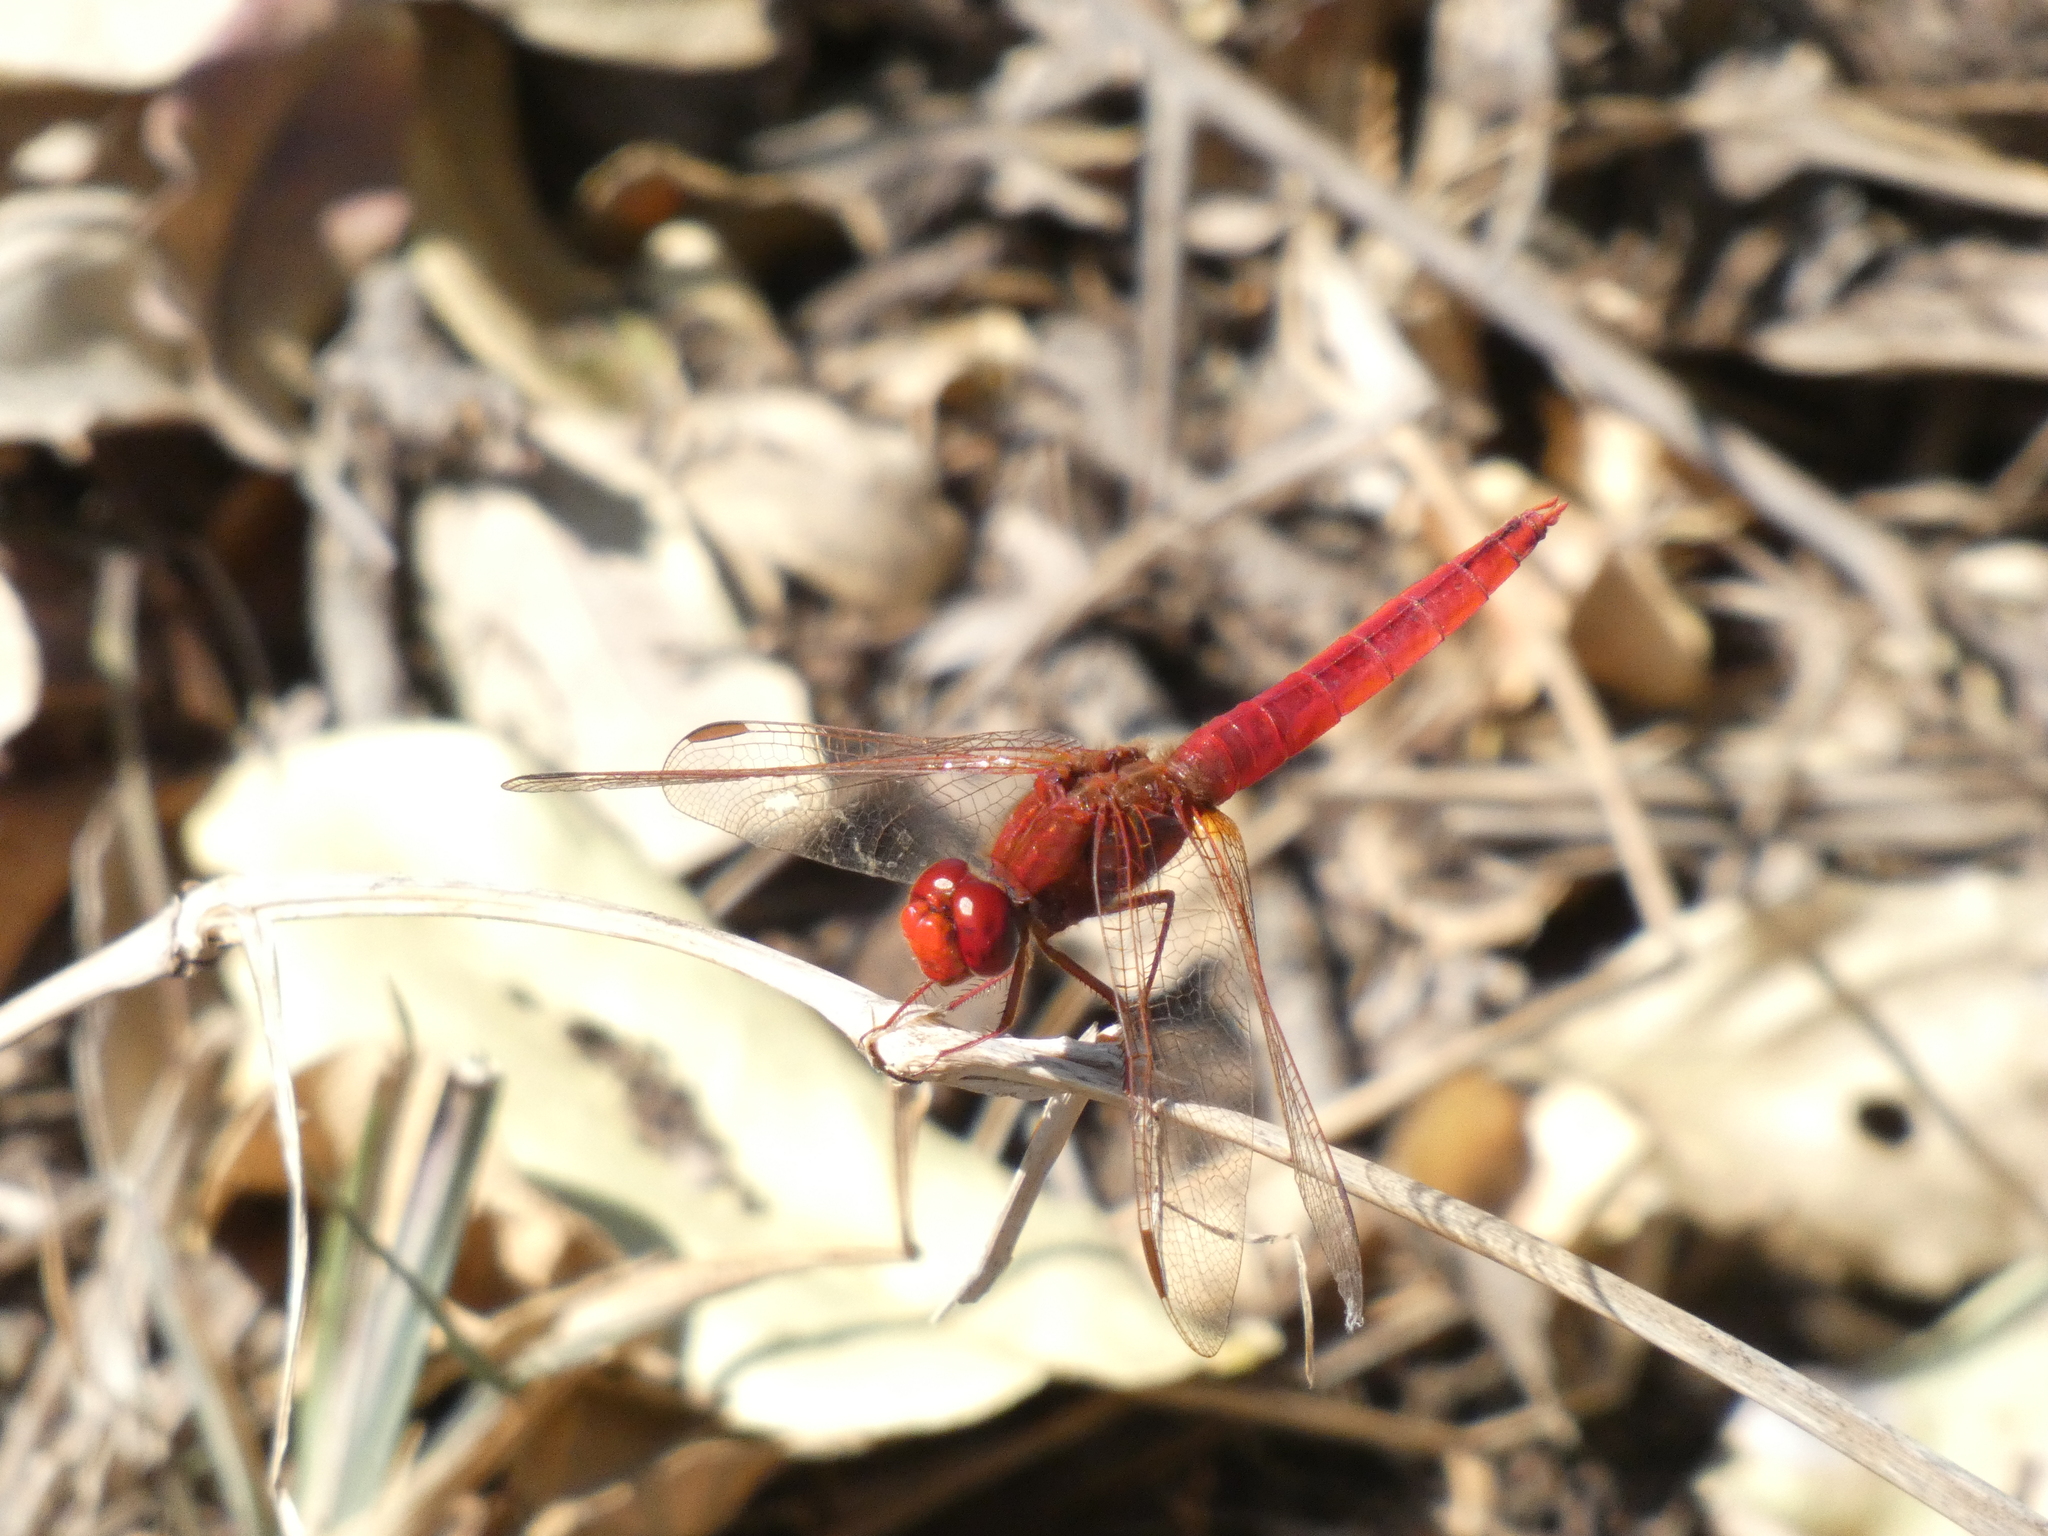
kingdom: Animalia
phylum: Arthropoda
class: Insecta
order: Odonata
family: Libellulidae
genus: Crocothemis
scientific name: Crocothemis erythraea
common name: Scarlet dragonfly
